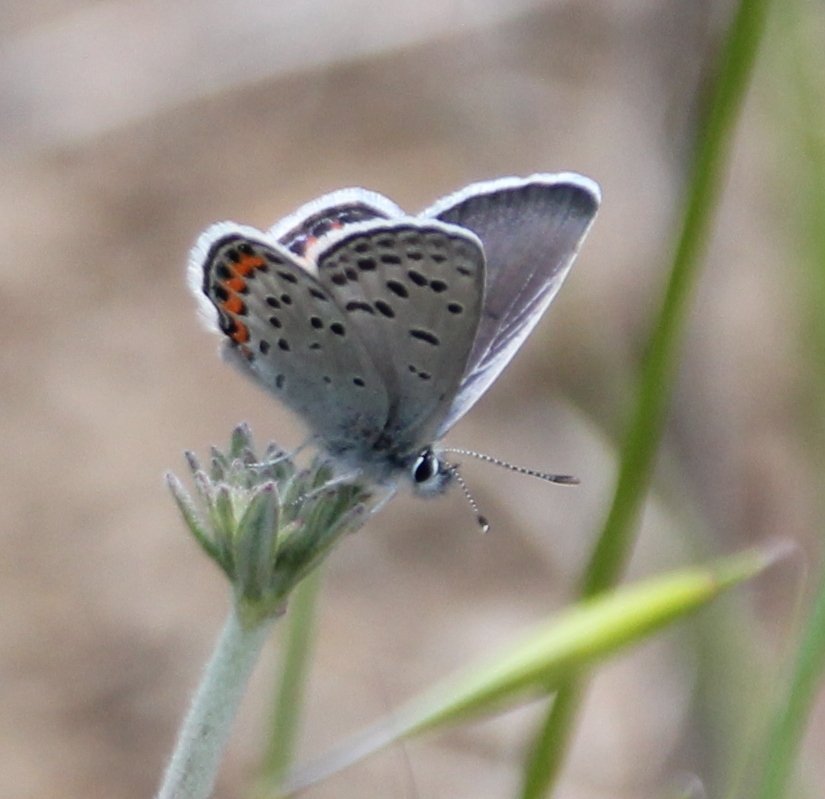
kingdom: Animalia
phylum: Arthropoda
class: Insecta
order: Lepidoptera
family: Lycaenidae
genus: Icaricia
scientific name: Icaricia lupini
